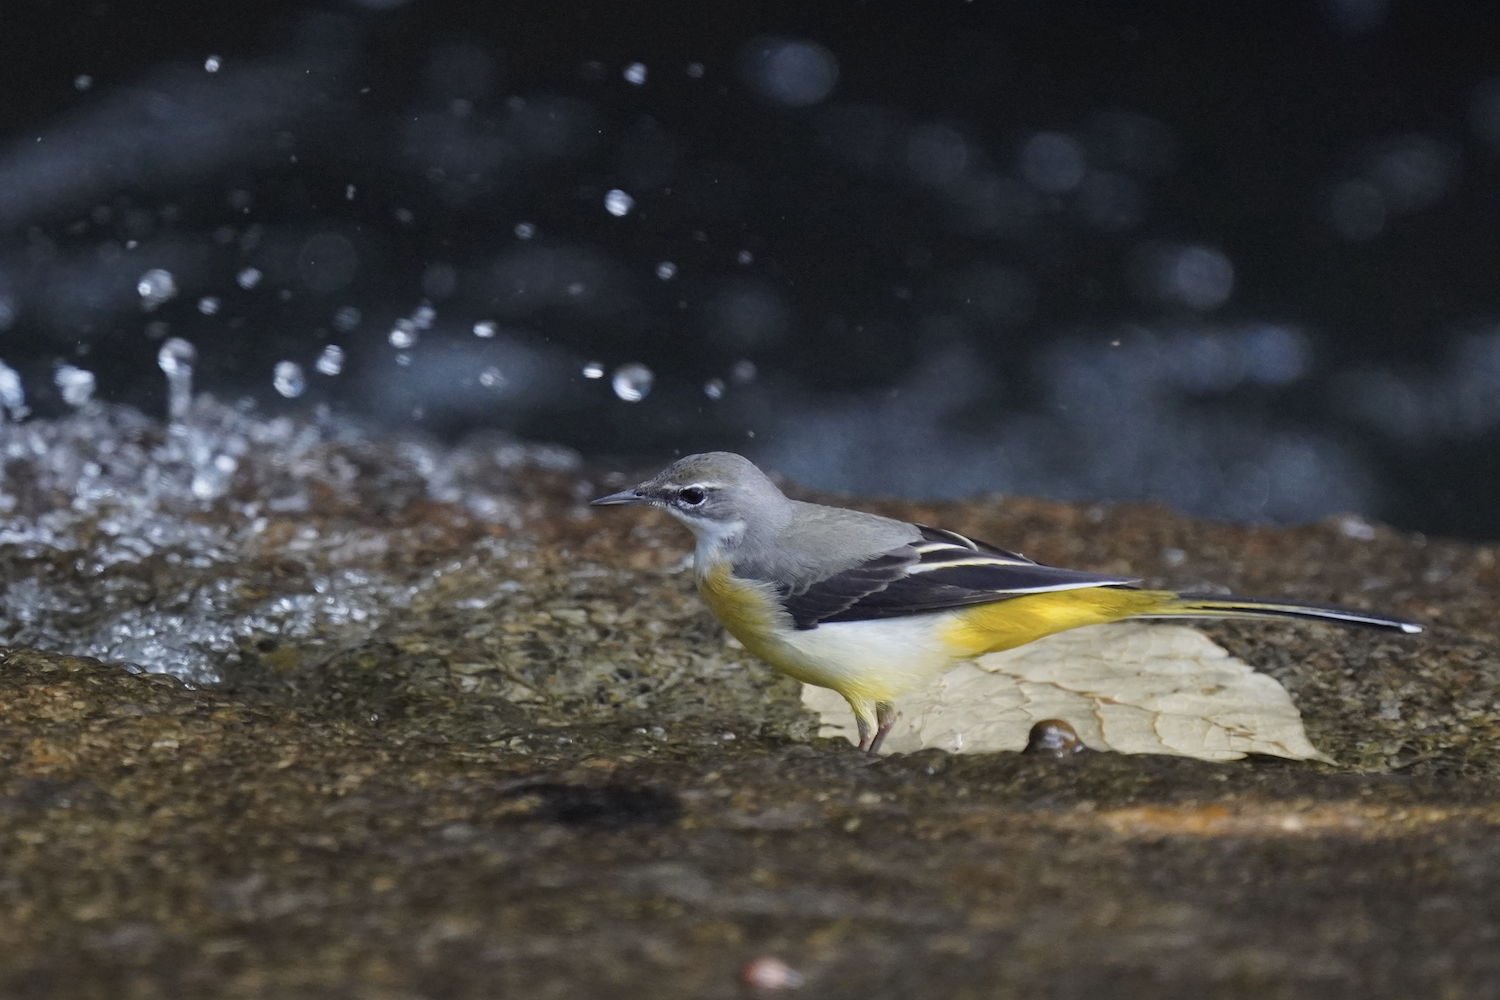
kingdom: Animalia
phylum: Chordata
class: Aves
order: Passeriformes
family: Motacillidae
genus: Motacilla
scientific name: Motacilla cinerea
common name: Grey wagtail
